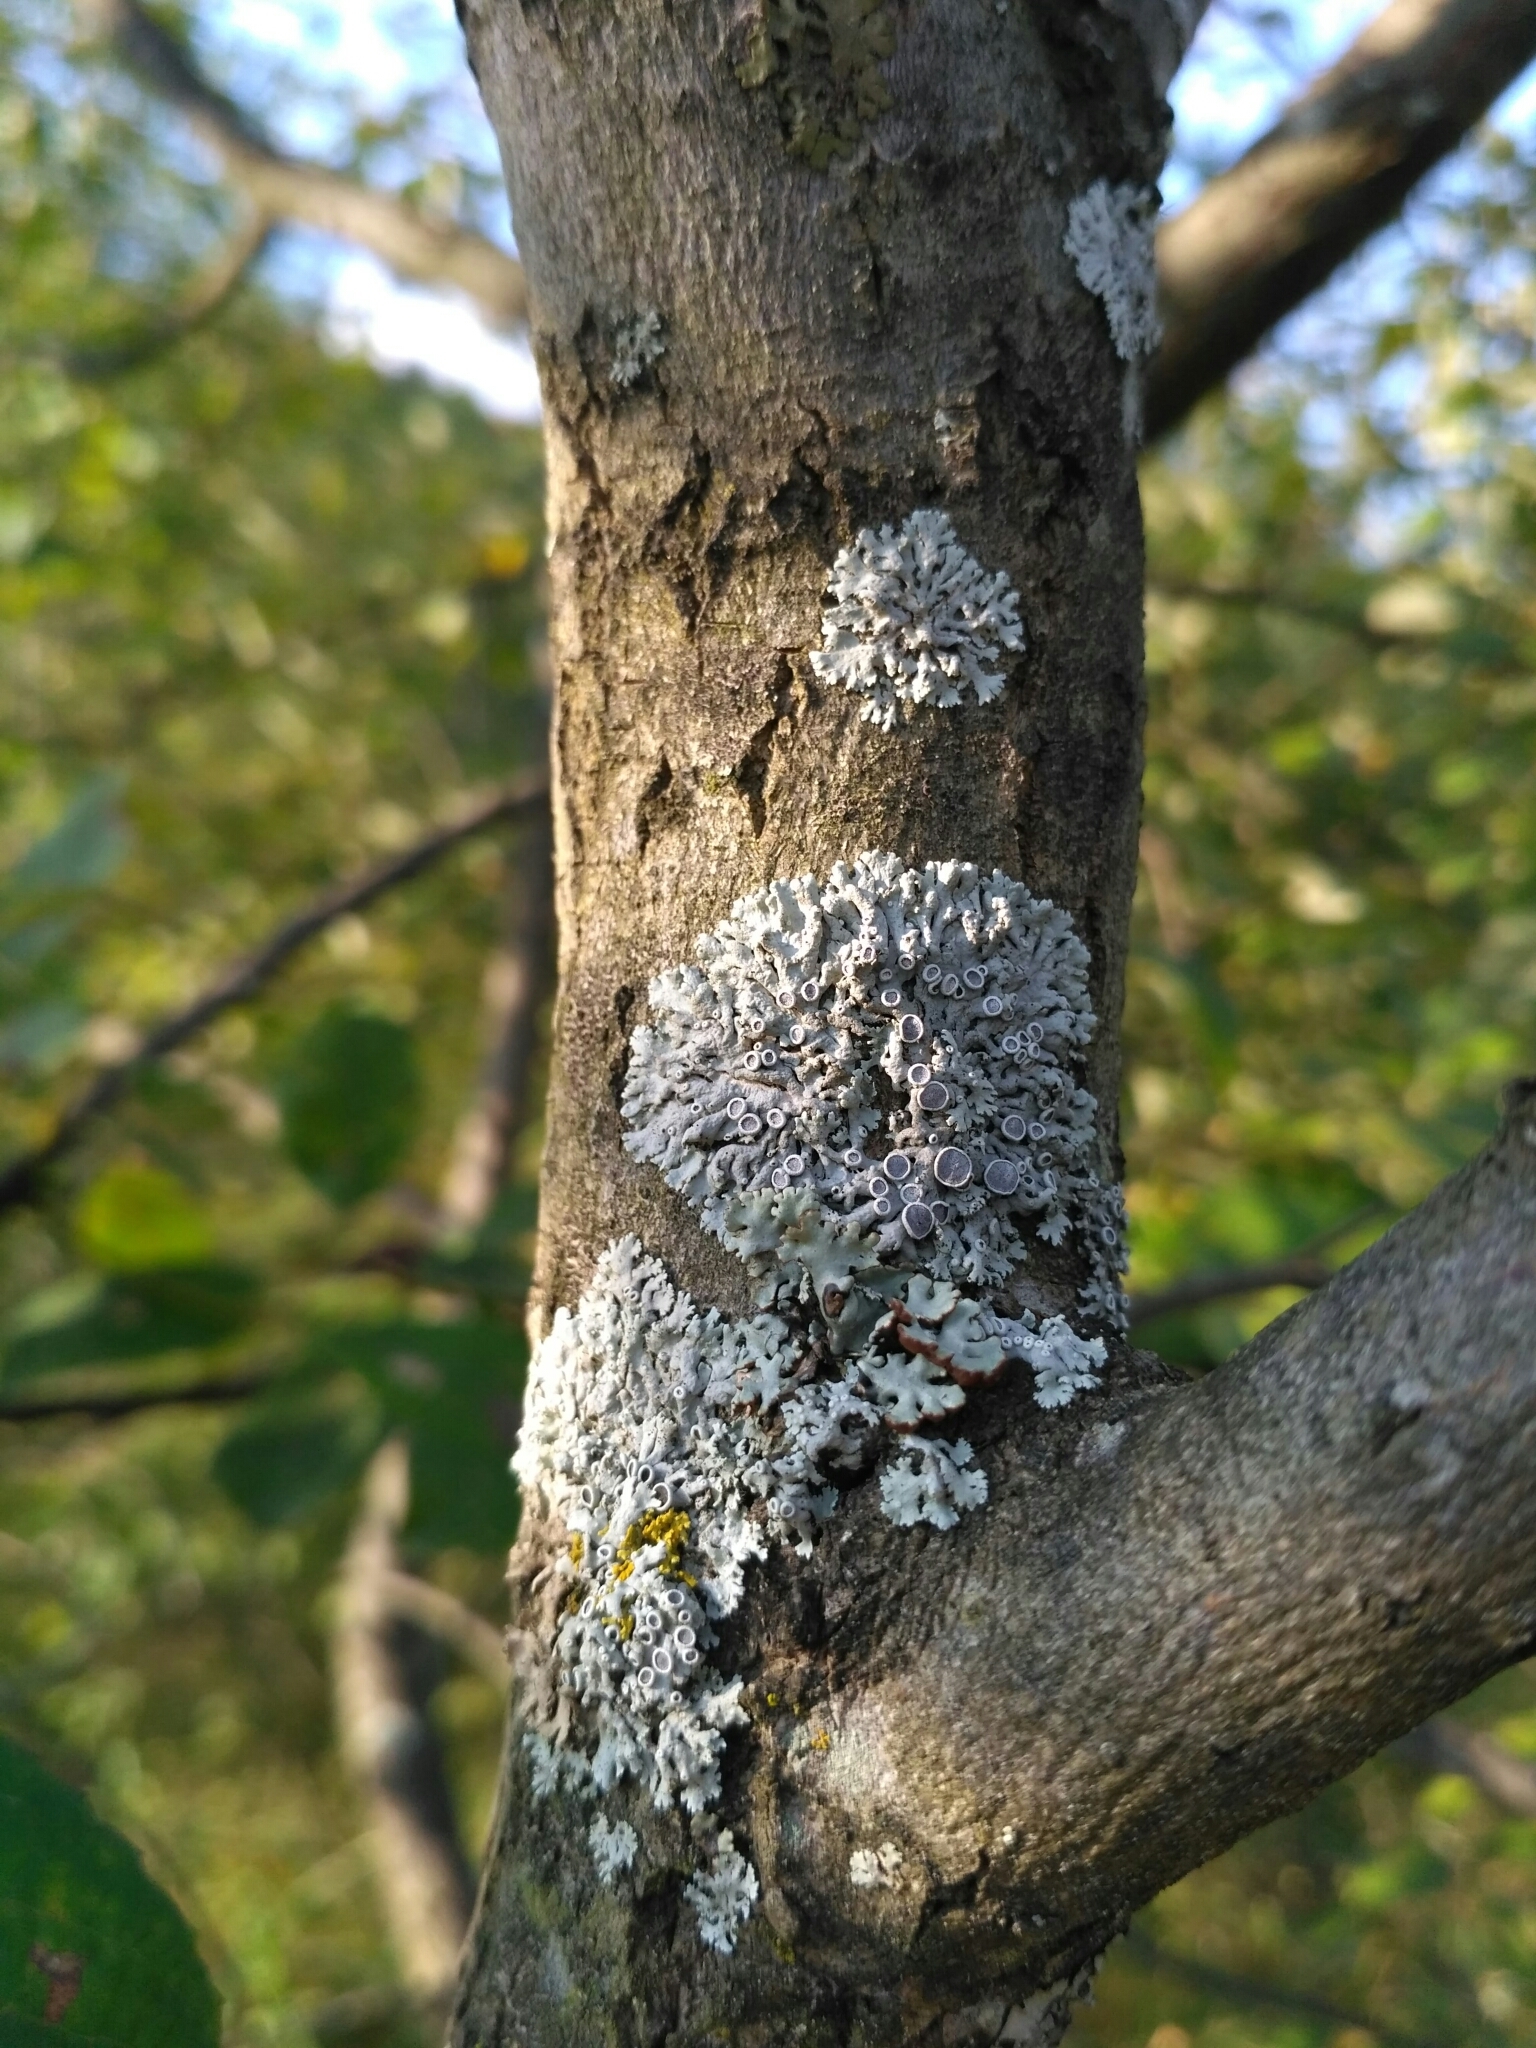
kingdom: Fungi
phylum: Ascomycota
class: Lecanoromycetes
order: Caliciales
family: Physciaceae
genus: Physcia
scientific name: Physcia stellaris
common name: Star rosette lichen
